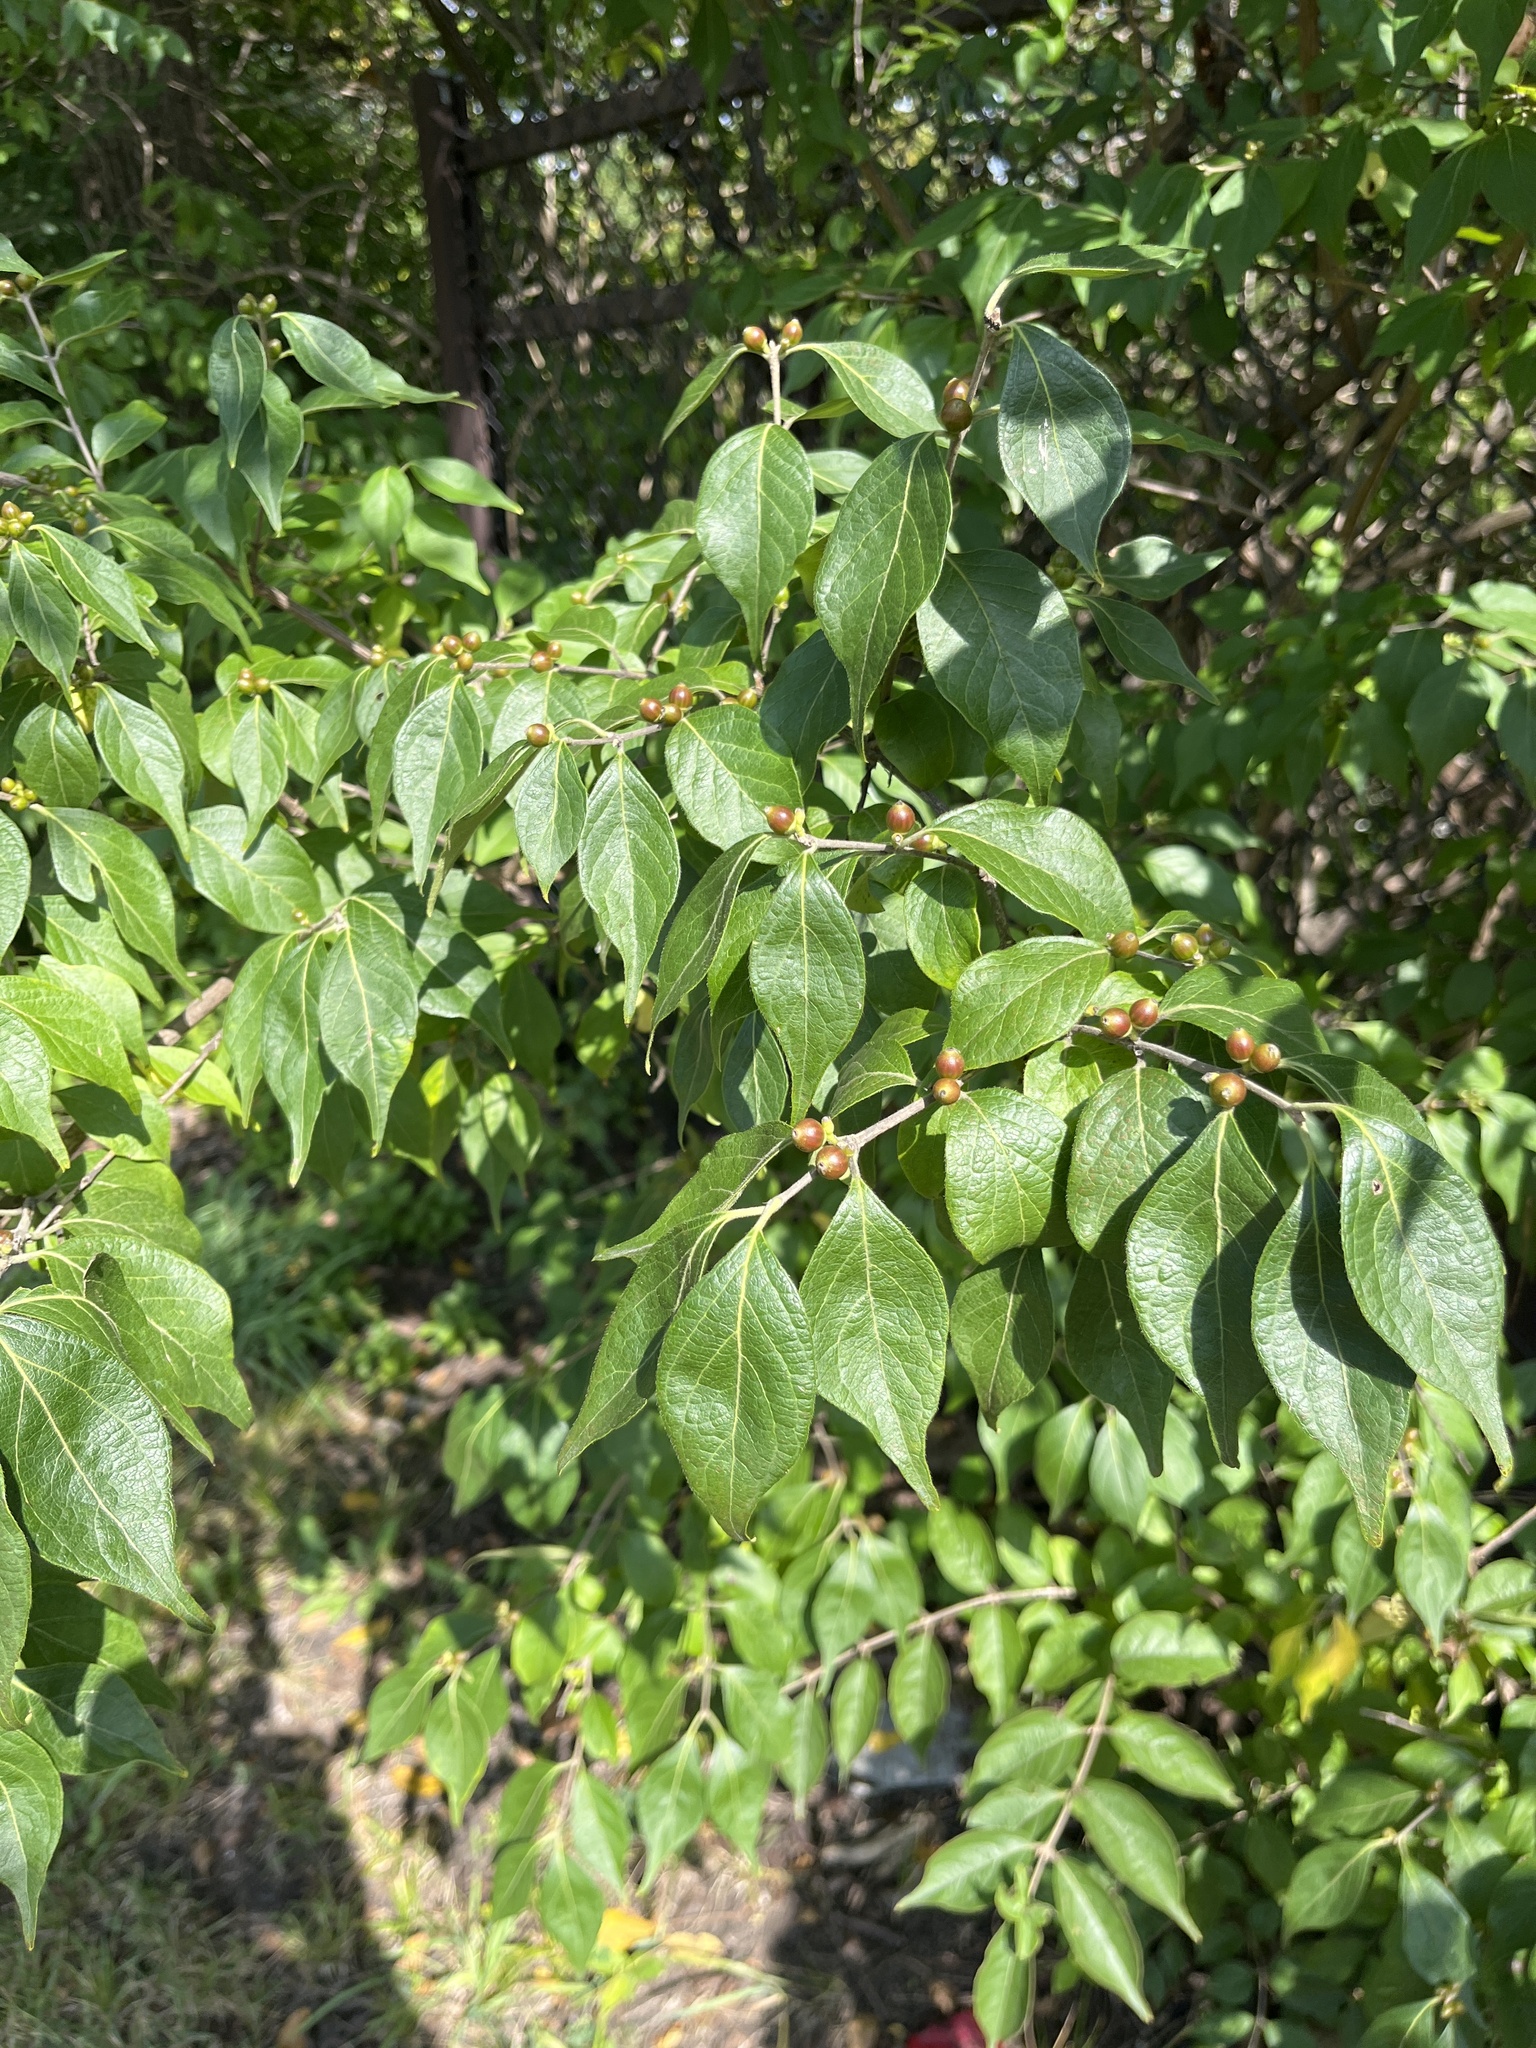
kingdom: Plantae
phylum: Tracheophyta
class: Magnoliopsida
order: Dipsacales
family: Caprifoliaceae
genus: Lonicera
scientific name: Lonicera maackii
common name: Amur honeysuckle
